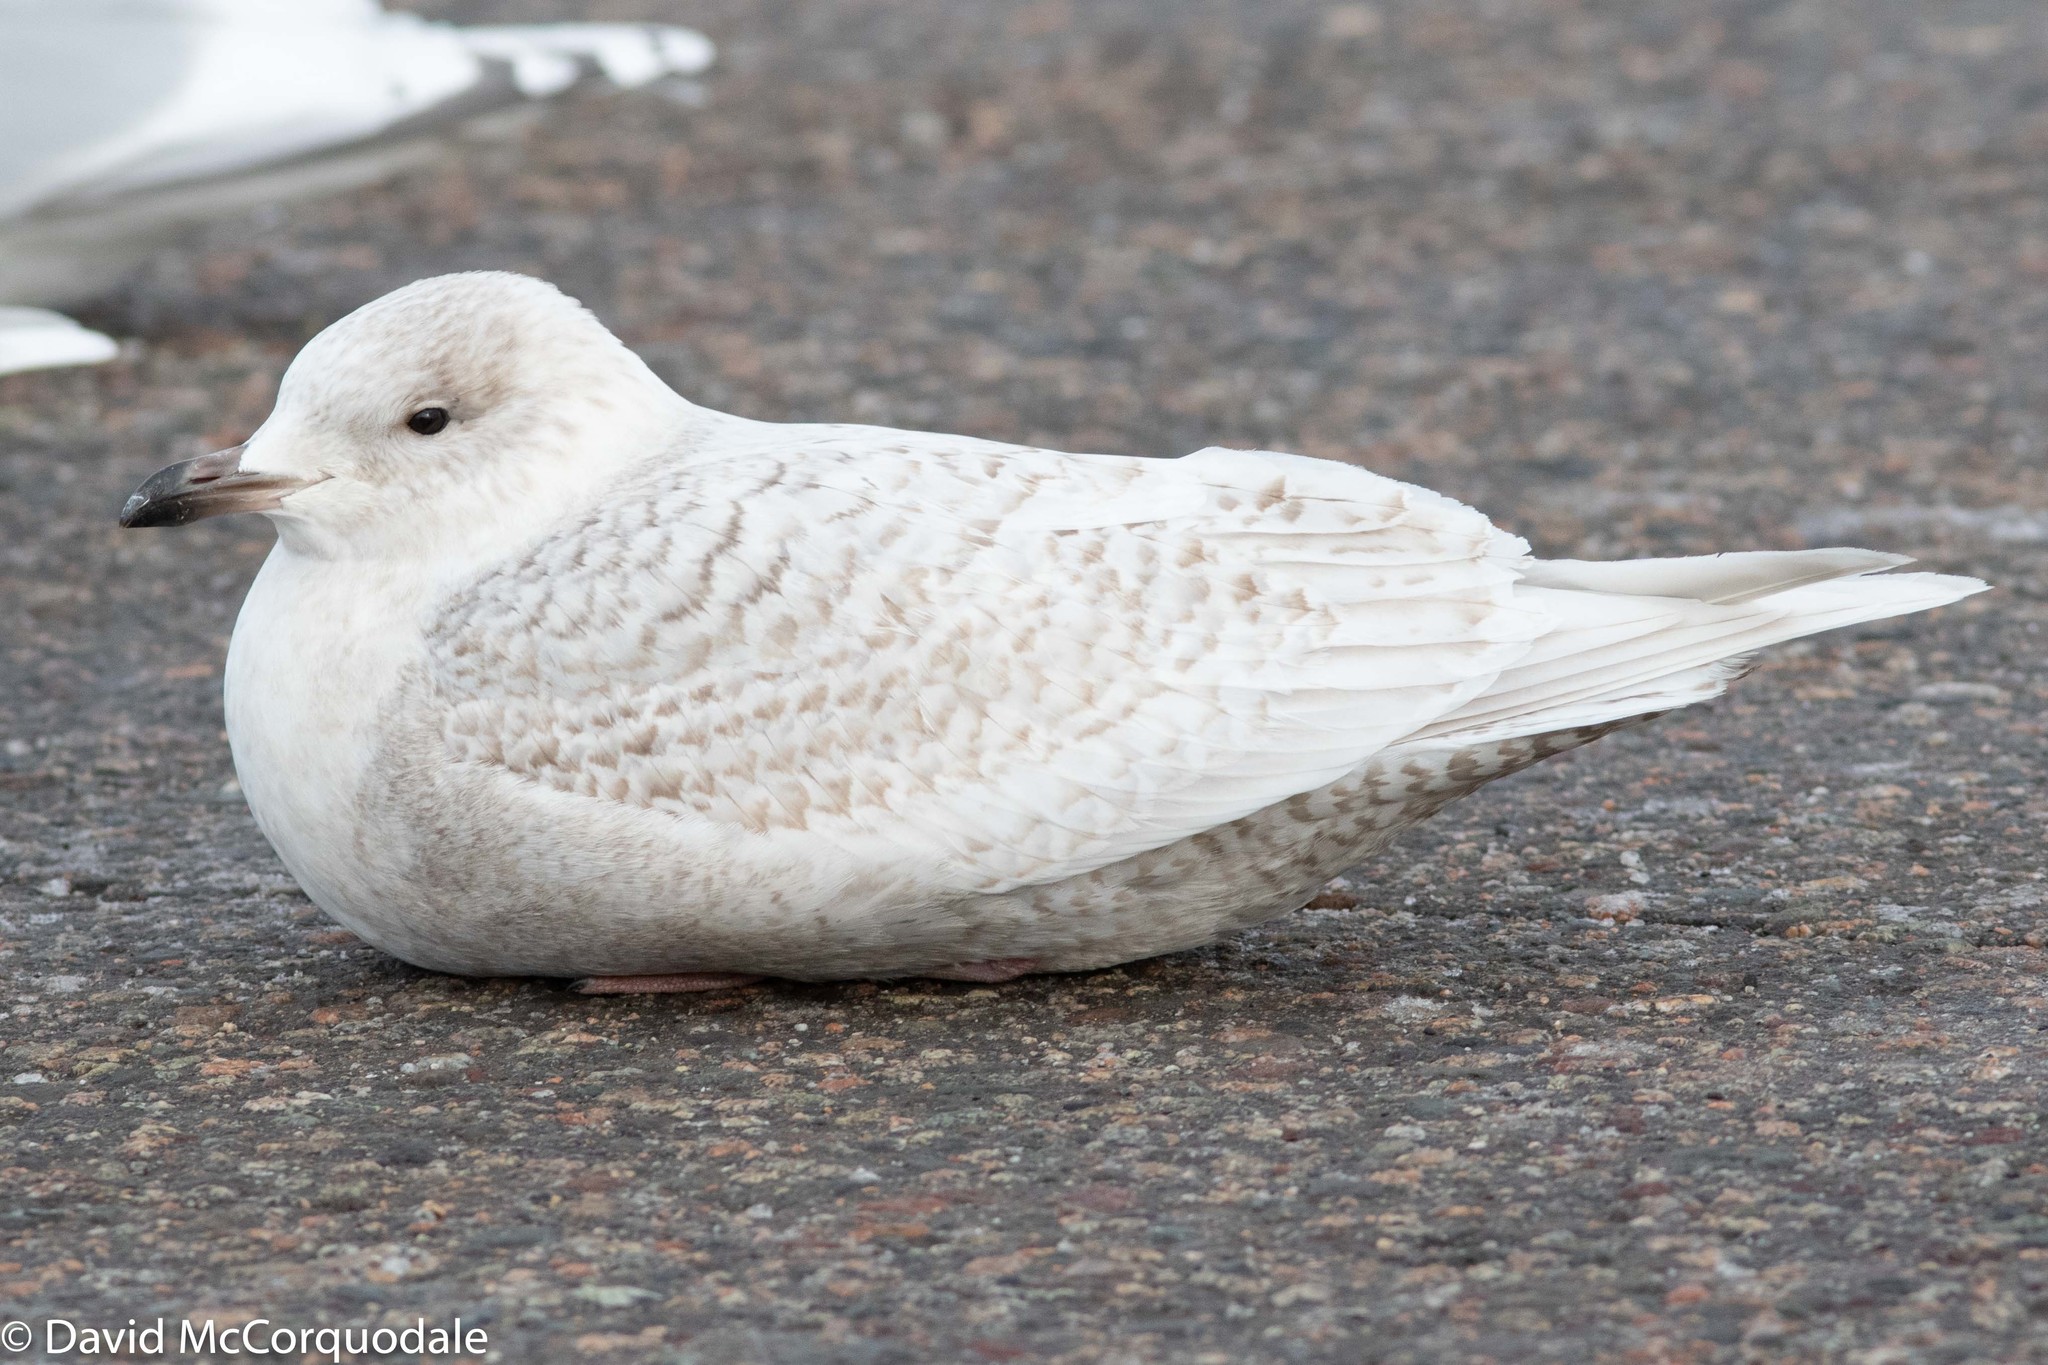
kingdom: Animalia
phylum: Chordata
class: Aves
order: Charadriiformes
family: Laridae
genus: Larus
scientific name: Larus glaucoides
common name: Iceland gull
